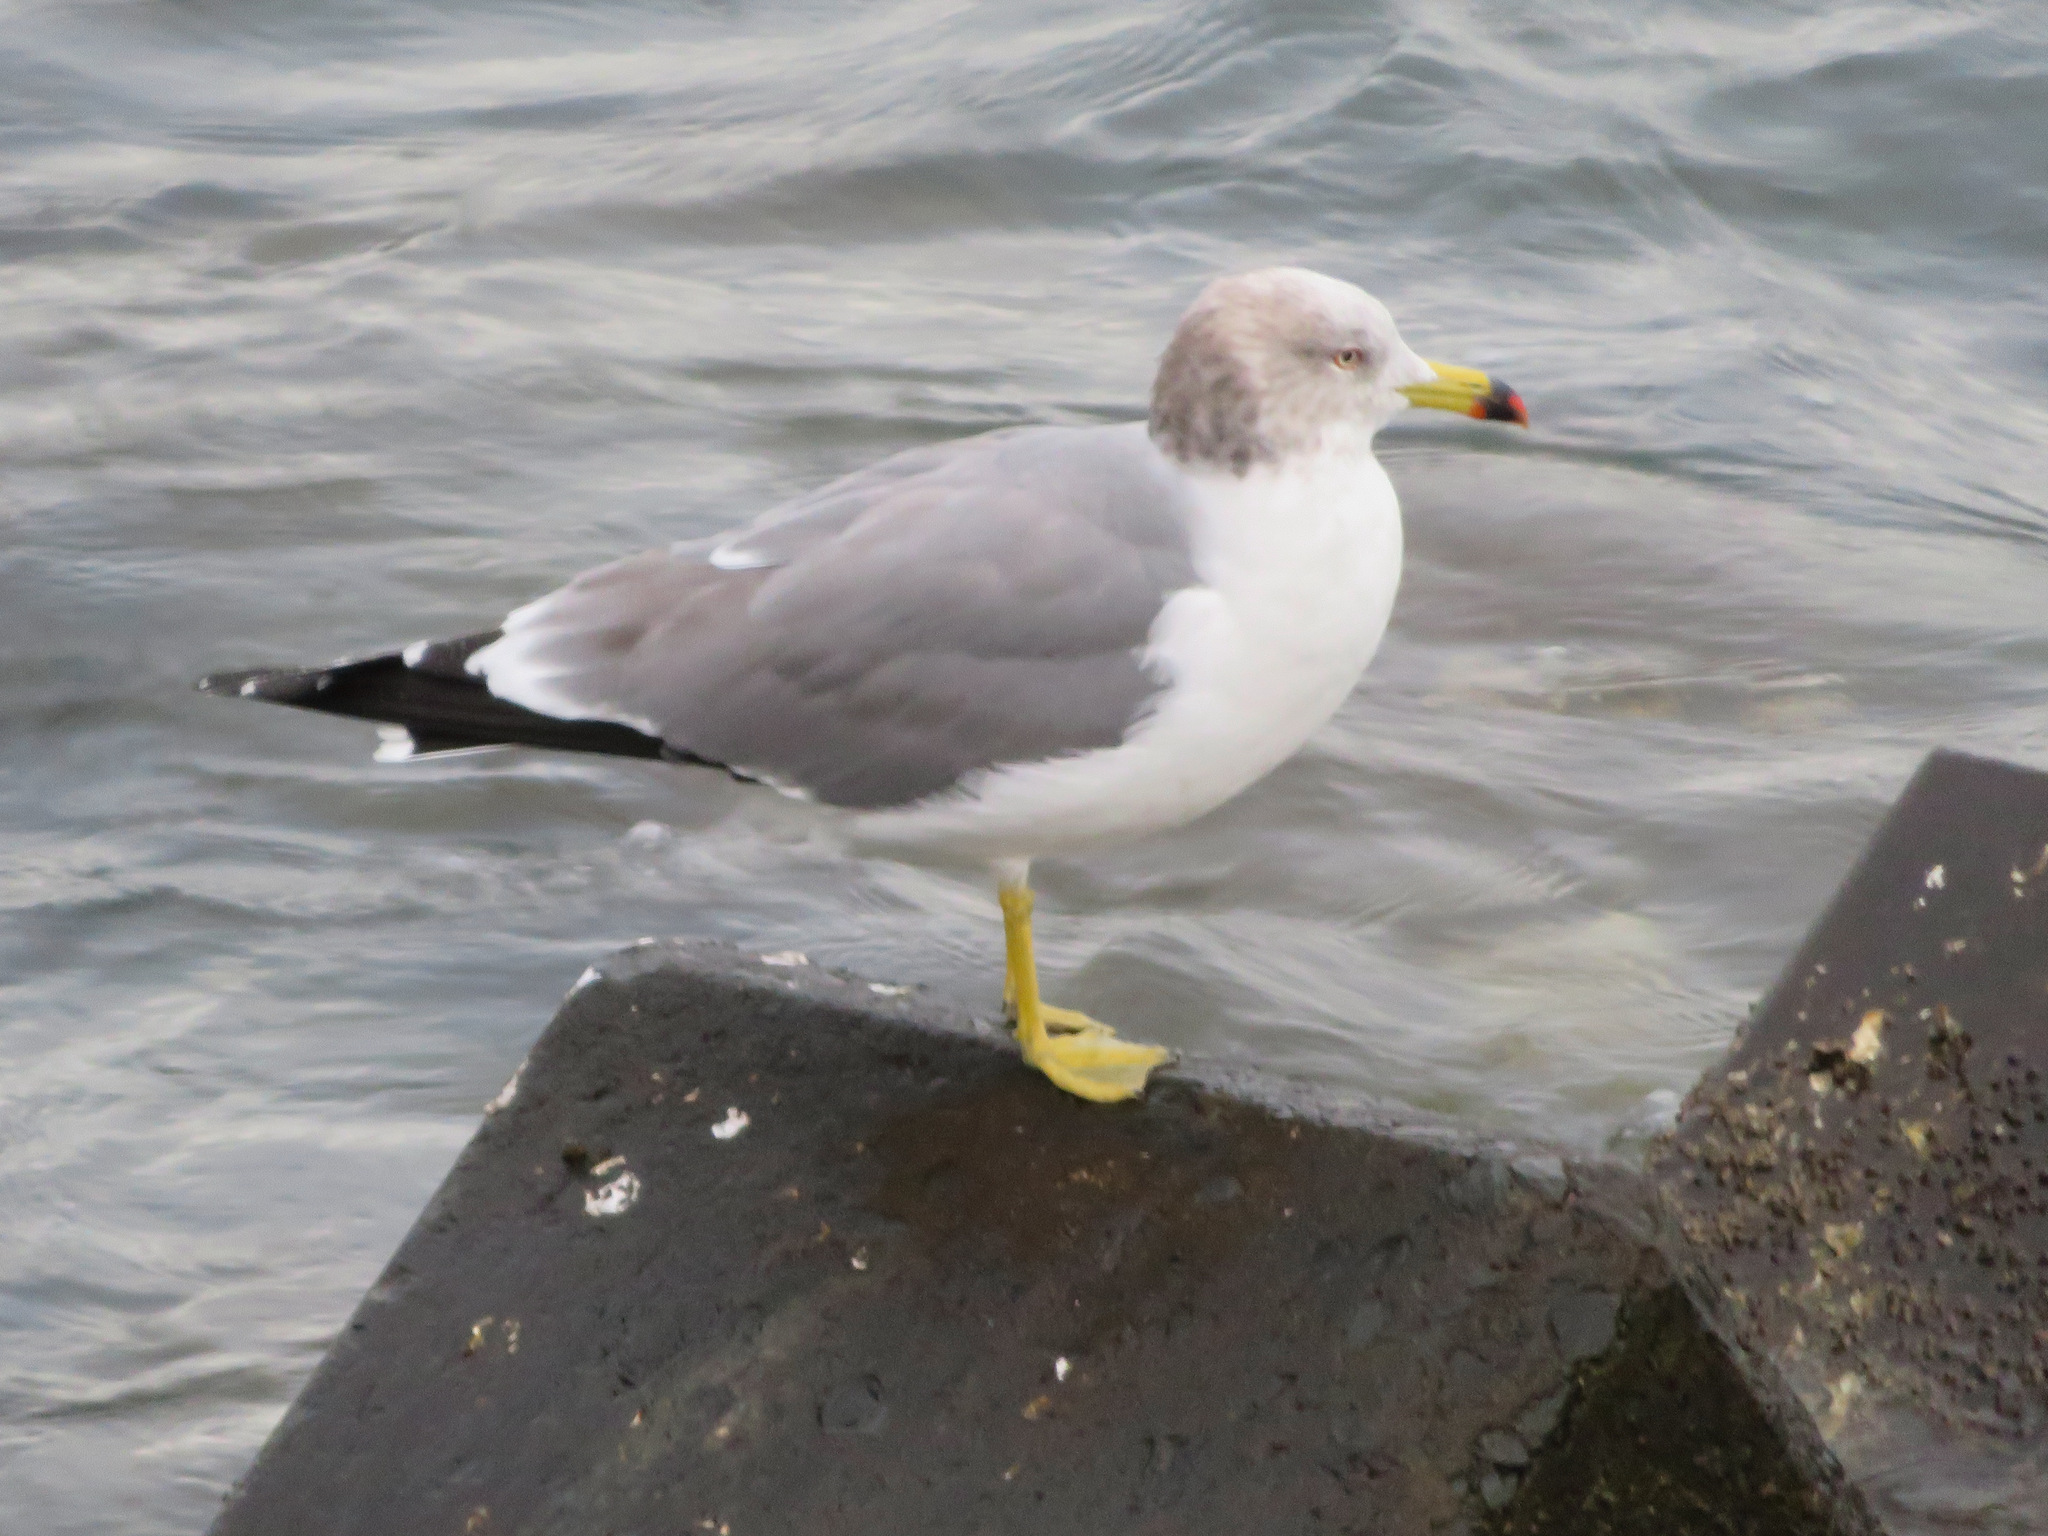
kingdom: Animalia
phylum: Chordata
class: Aves
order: Charadriiformes
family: Laridae
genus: Larus
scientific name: Larus crassirostris
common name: Black-tailed gull
